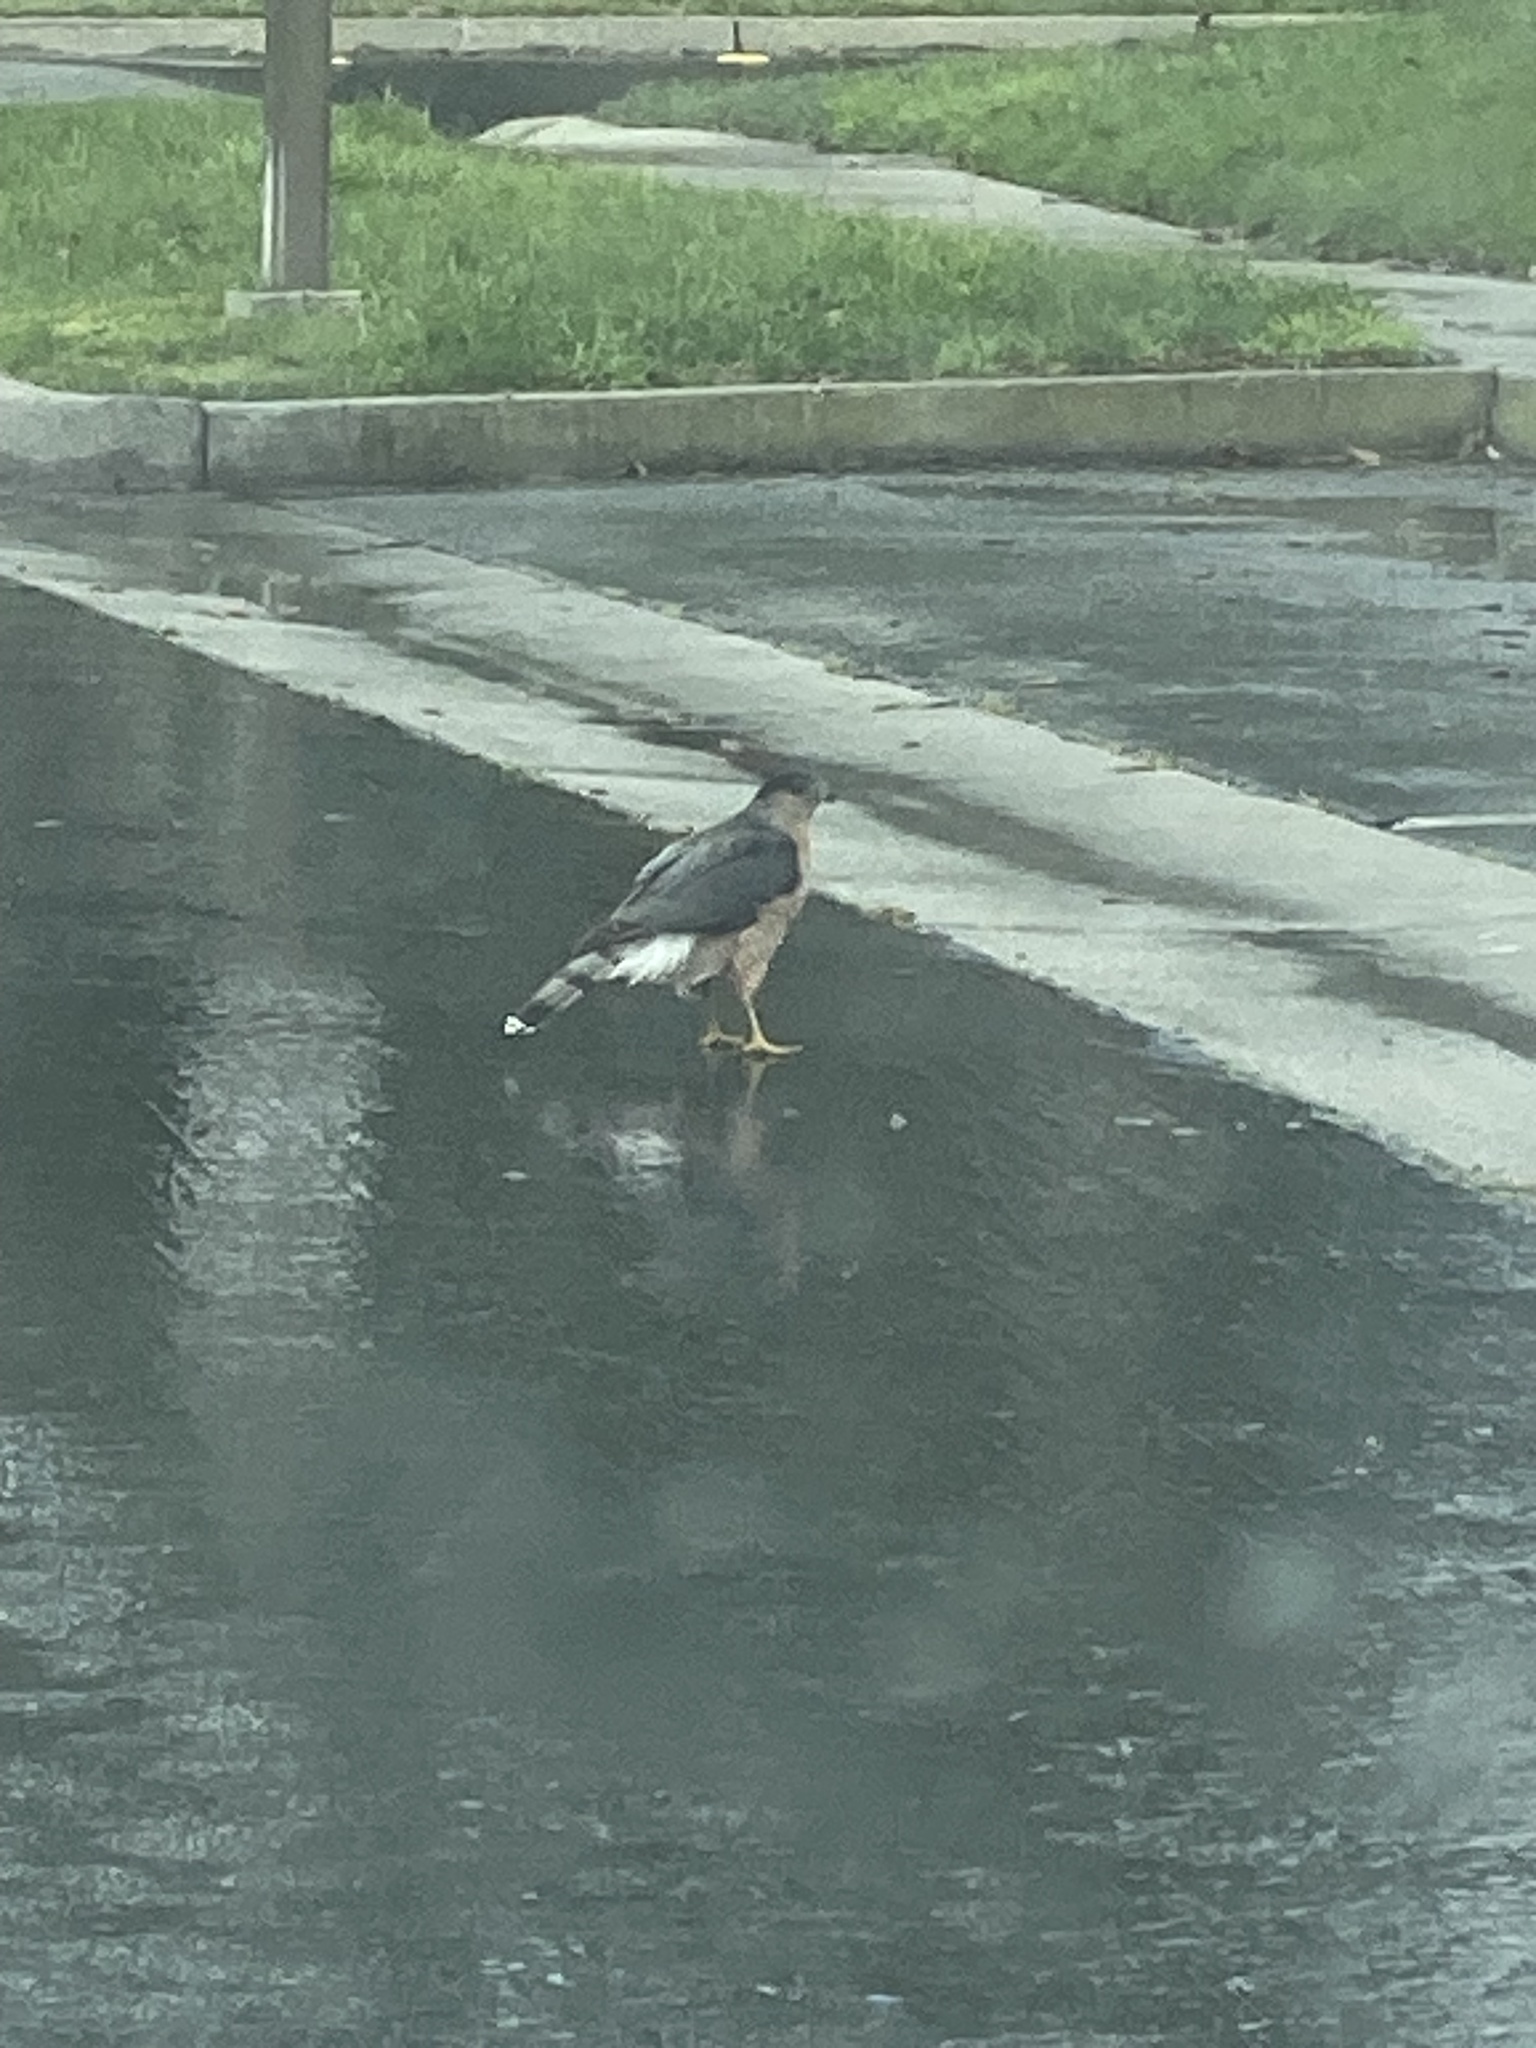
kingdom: Animalia
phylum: Chordata
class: Aves
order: Accipitriformes
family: Accipitridae
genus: Accipiter
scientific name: Accipiter cooperii
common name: Cooper's hawk
